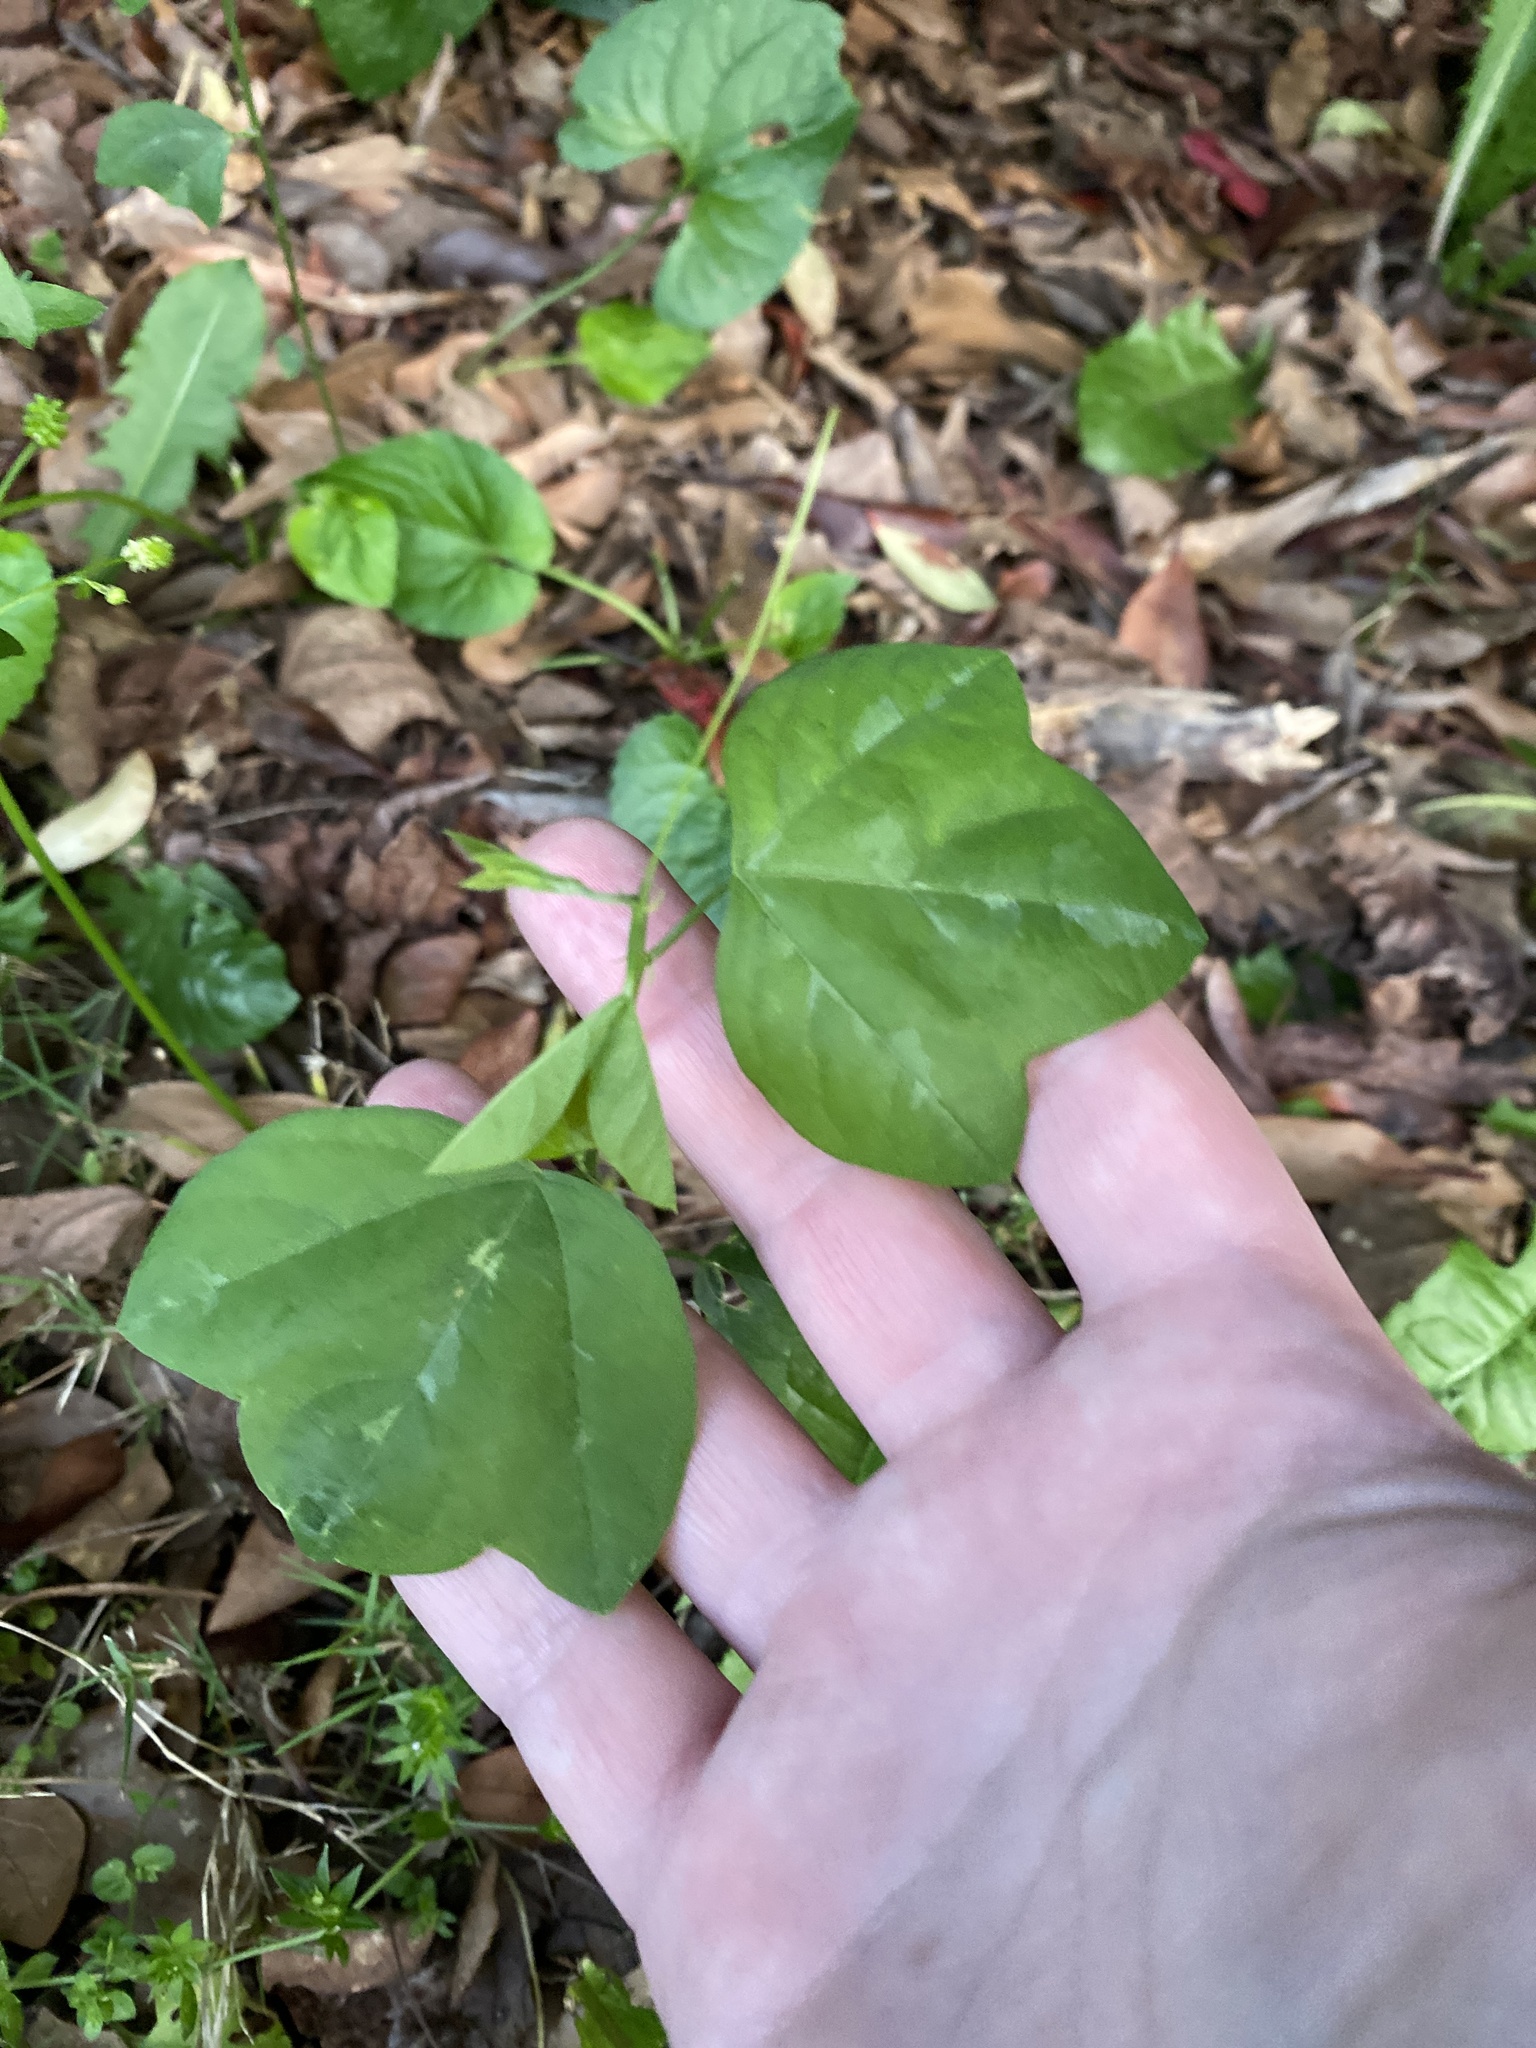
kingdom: Plantae
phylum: Tracheophyta
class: Magnoliopsida
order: Malpighiales
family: Passifloraceae
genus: Passiflora
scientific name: Passiflora lutea
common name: Yellow passionflower
